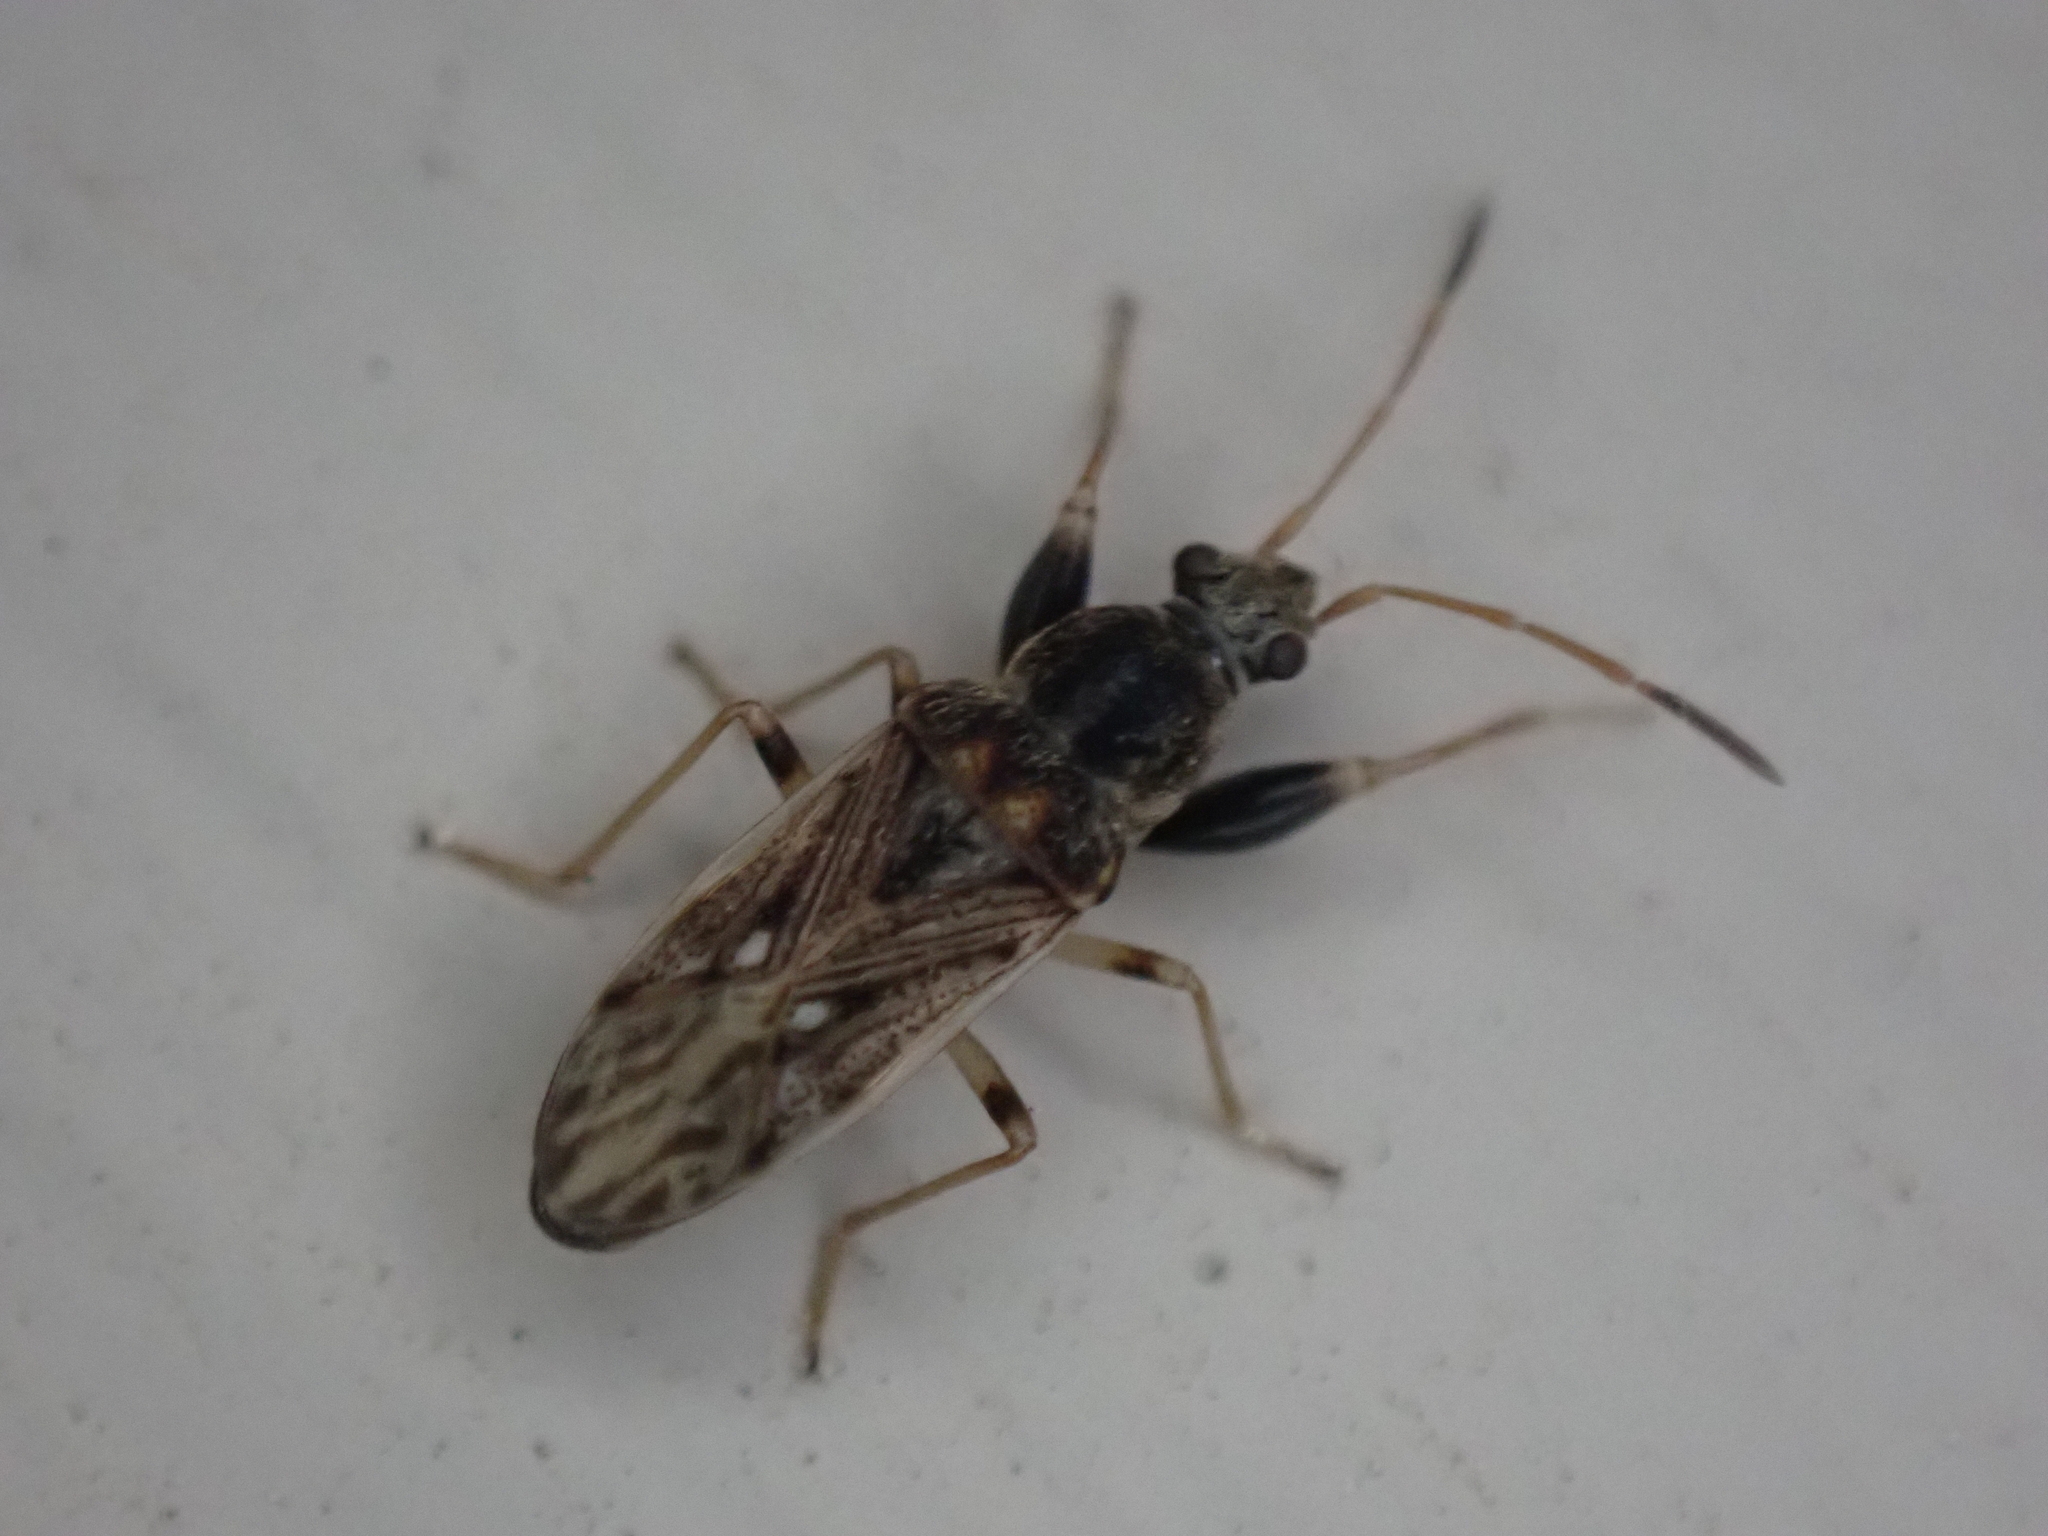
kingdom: Animalia
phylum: Arthropoda
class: Insecta
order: Hemiptera
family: Rhyparochromidae
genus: Pseudopachybrachius
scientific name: Pseudopachybrachius basalis
